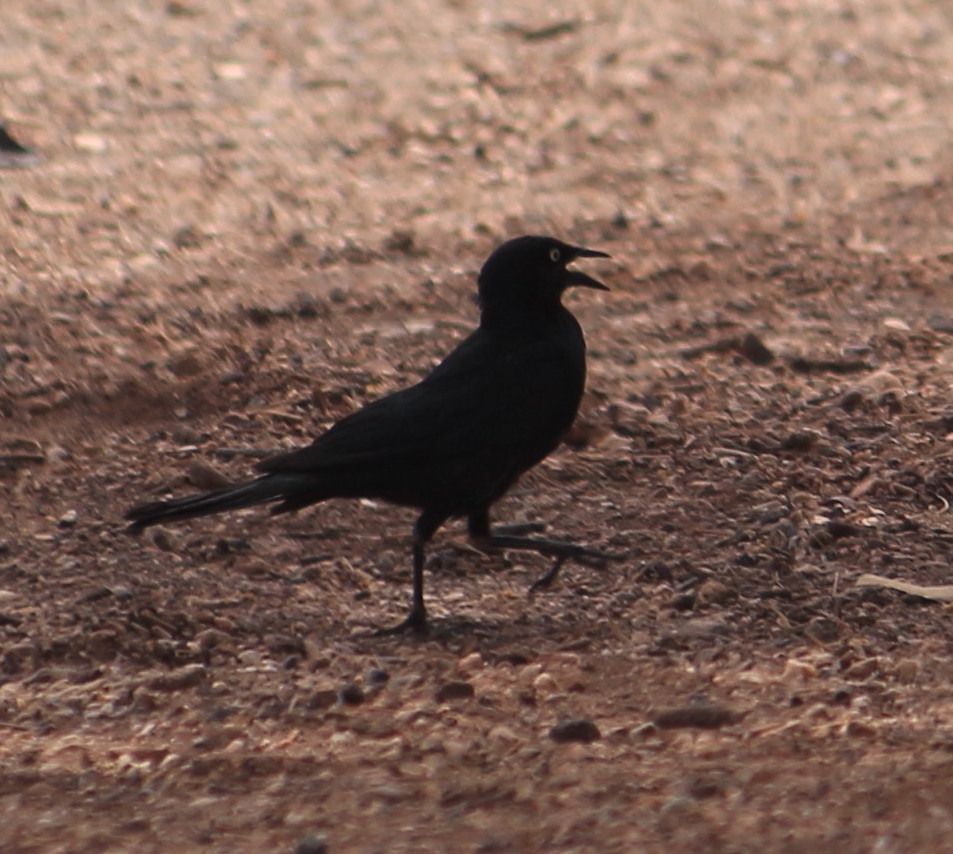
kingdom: Animalia
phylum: Chordata
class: Aves
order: Passeriformes
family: Icteridae
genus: Euphagus
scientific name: Euphagus cyanocephalus
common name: Brewer's blackbird
